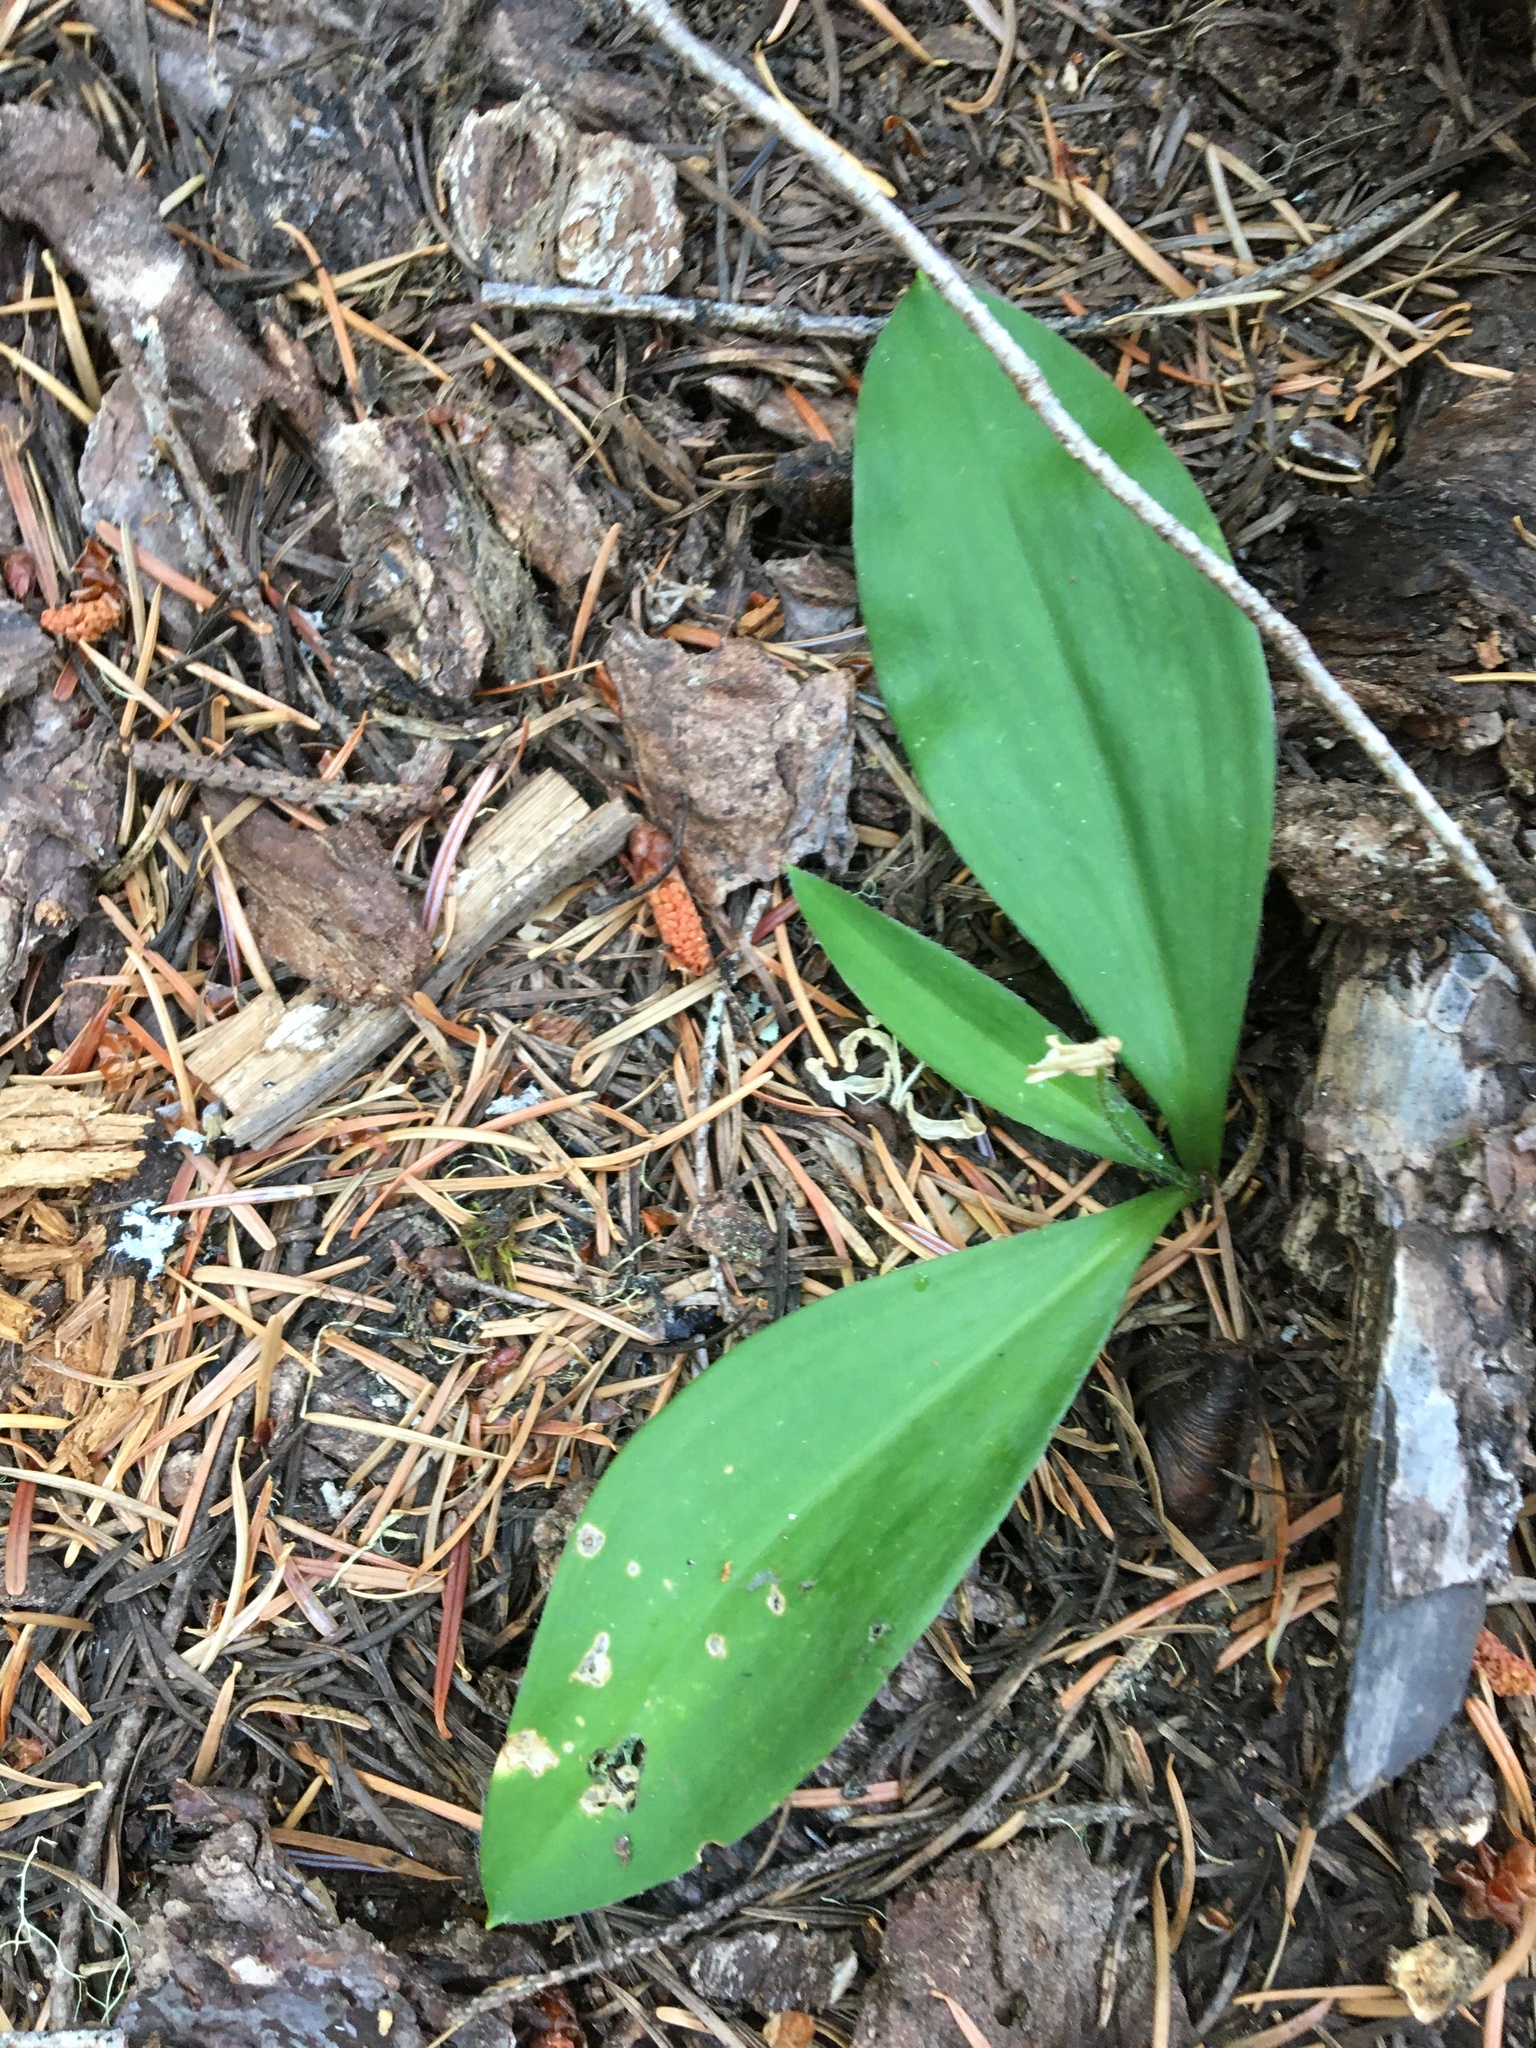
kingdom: Plantae
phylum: Tracheophyta
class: Liliopsida
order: Liliales
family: Liliaceae
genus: Clintonia
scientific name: Clintonia uniflora
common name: Queen's cup
